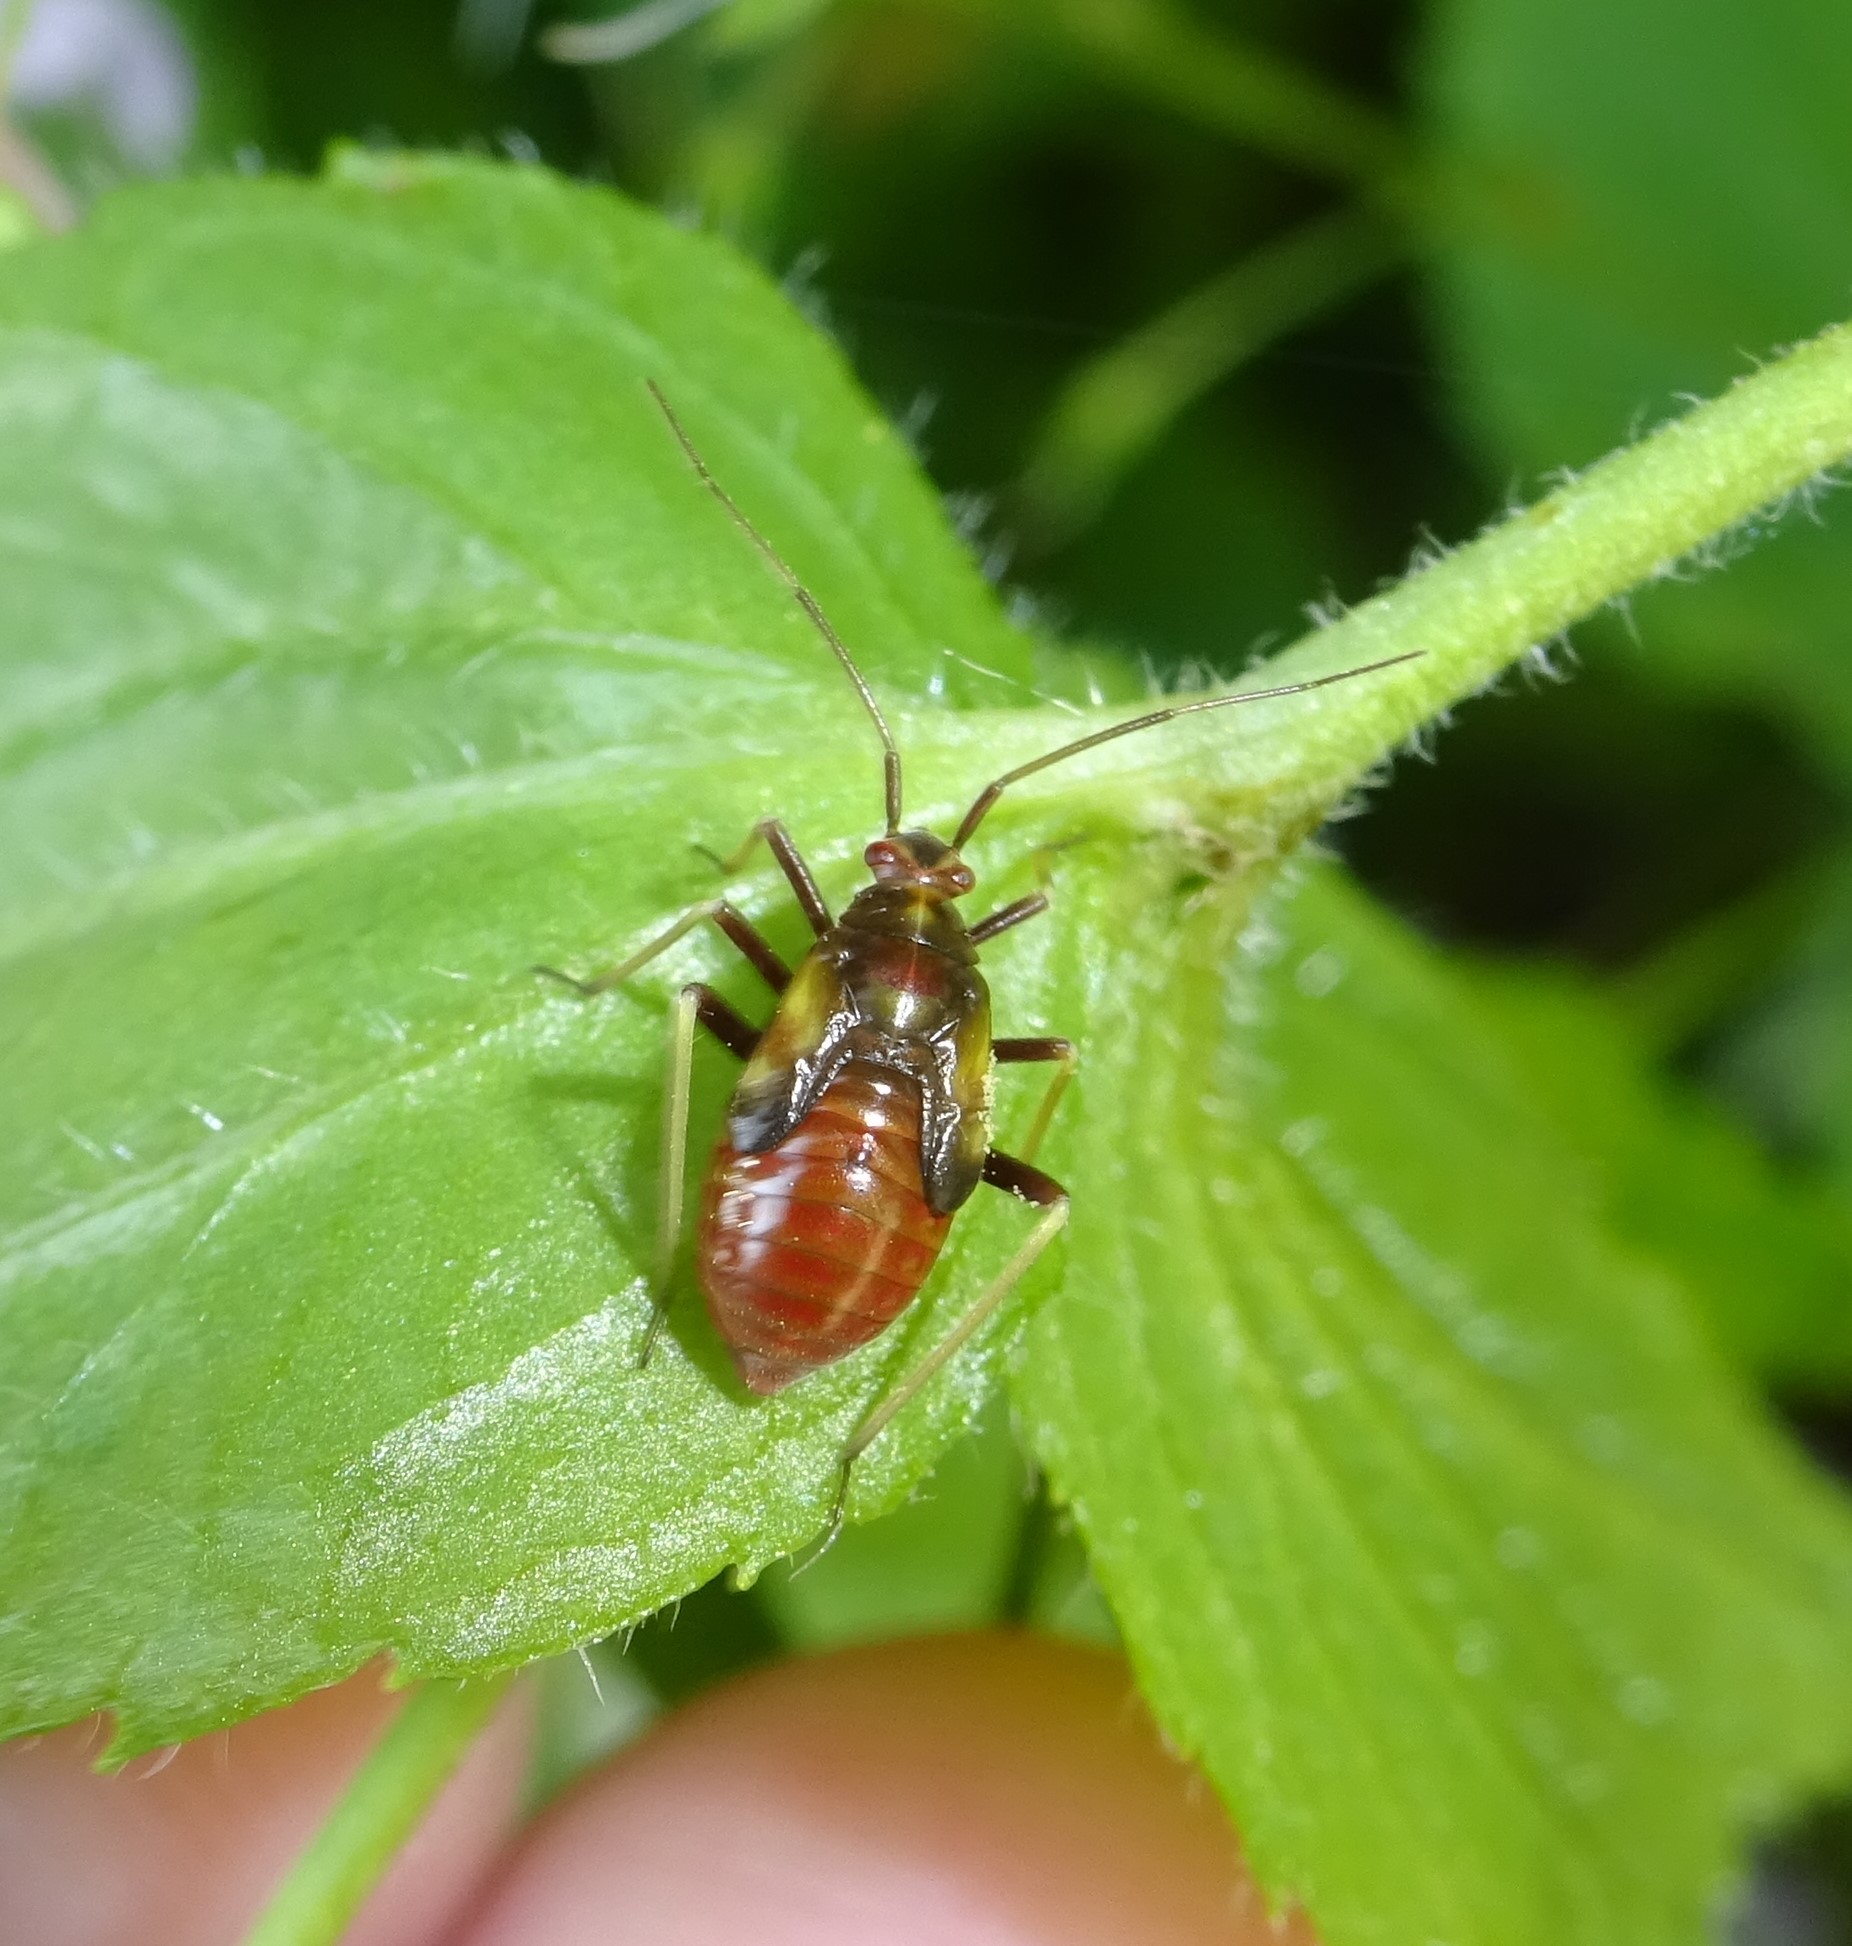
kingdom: Animalia
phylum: Arthropoda
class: Insecta
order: Hemiptera
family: Miridae
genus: Grypocoris
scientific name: Grypocoris sexguttatus
